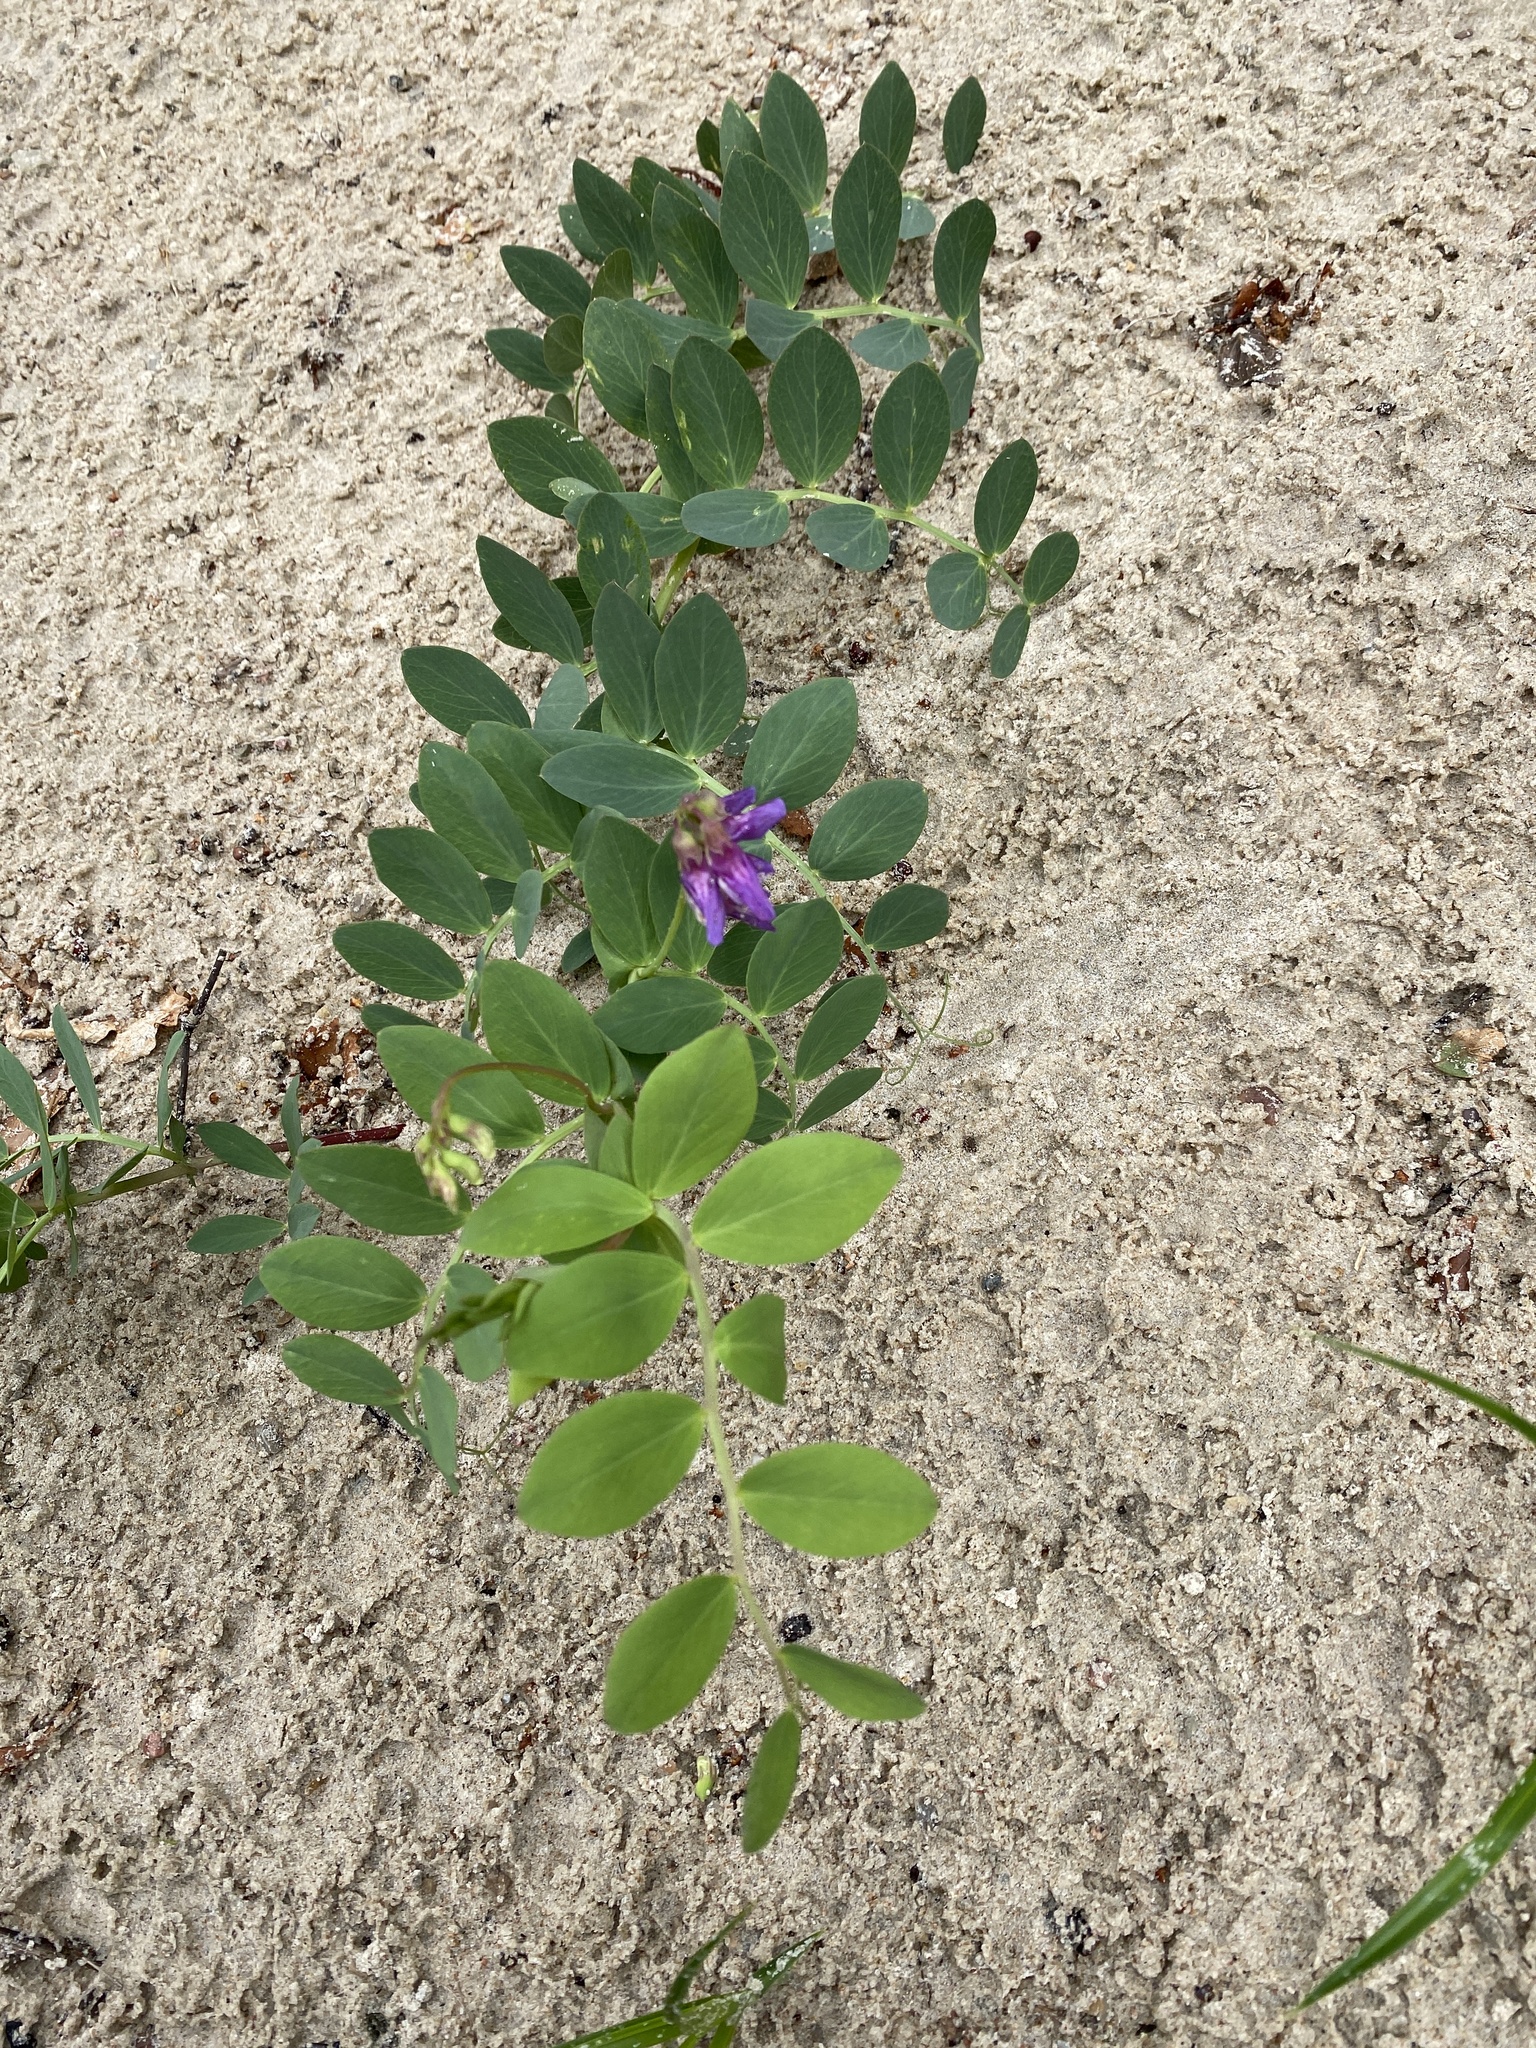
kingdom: Plantae
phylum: Tracheophyta
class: Magnoliopsida
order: Fabales
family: Fabaceae
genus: Lathyrus
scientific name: Lathyrus japonicus
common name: Sea pea
